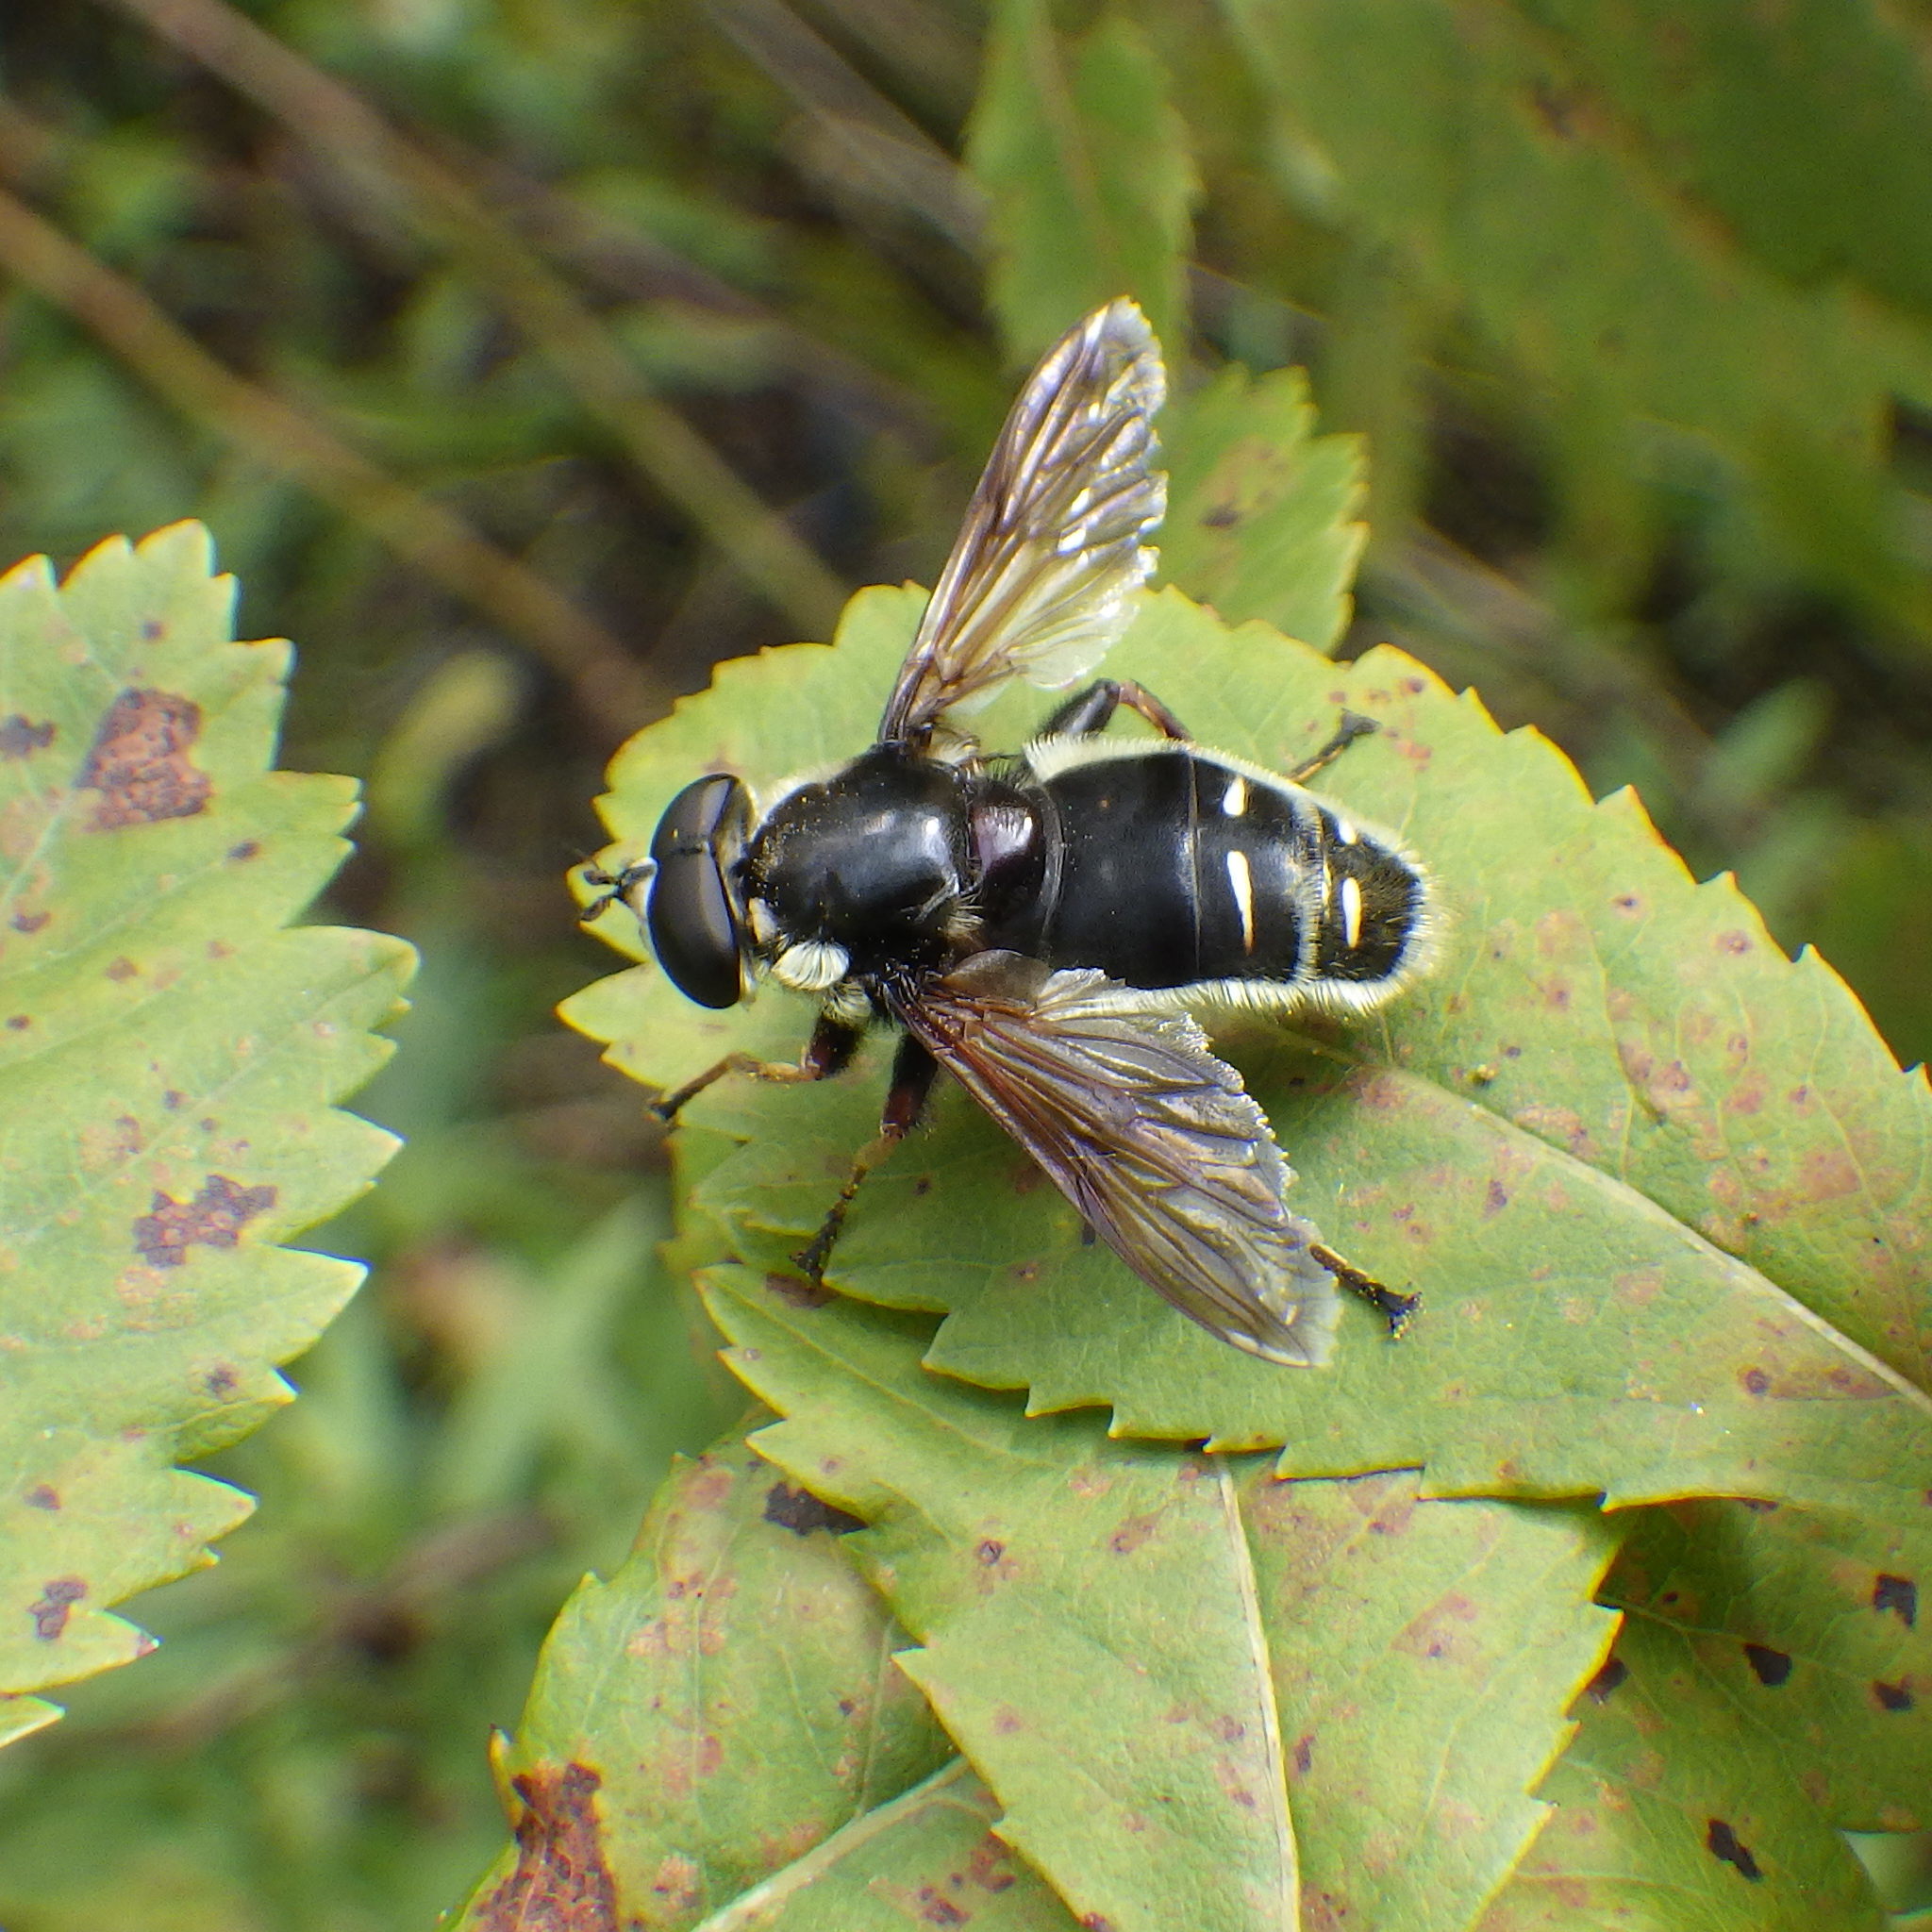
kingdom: Animalia
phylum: Arthropoda
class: Insecta
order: Diptera
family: Syrphidae
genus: Sericomyia
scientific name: Sericomyia militaris
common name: Narrow-banded pond fly
